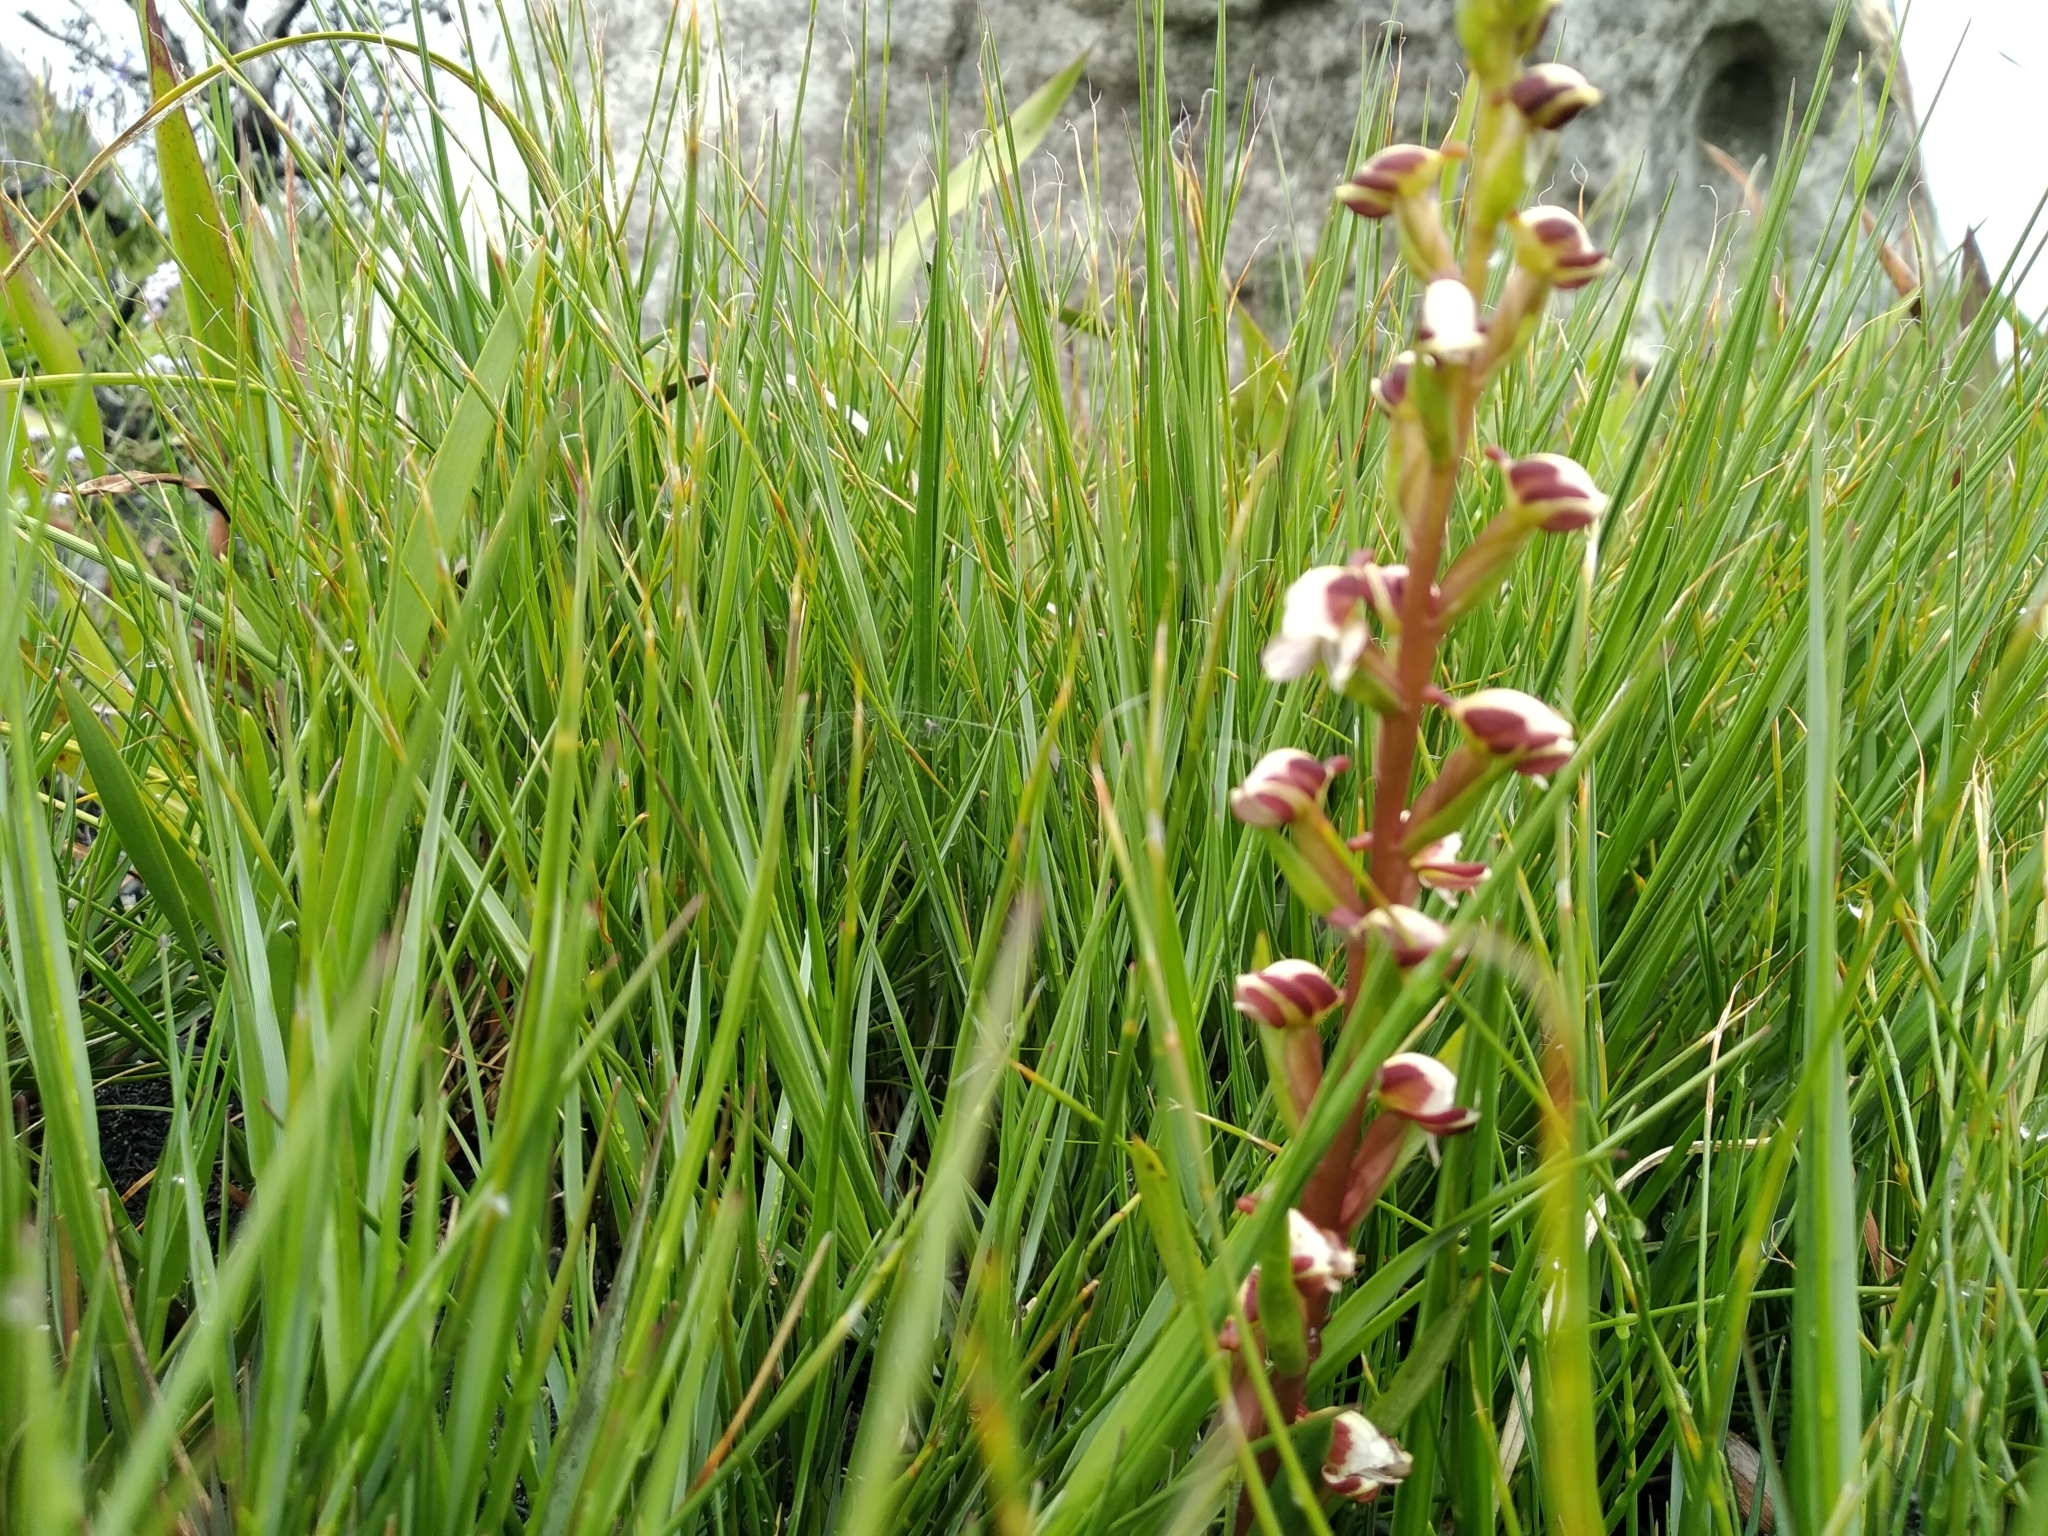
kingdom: Plantae
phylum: Tracheophyta
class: Liliopsida
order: Asparagales
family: Orchidaceae
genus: Disa
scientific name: Disa ocellata
